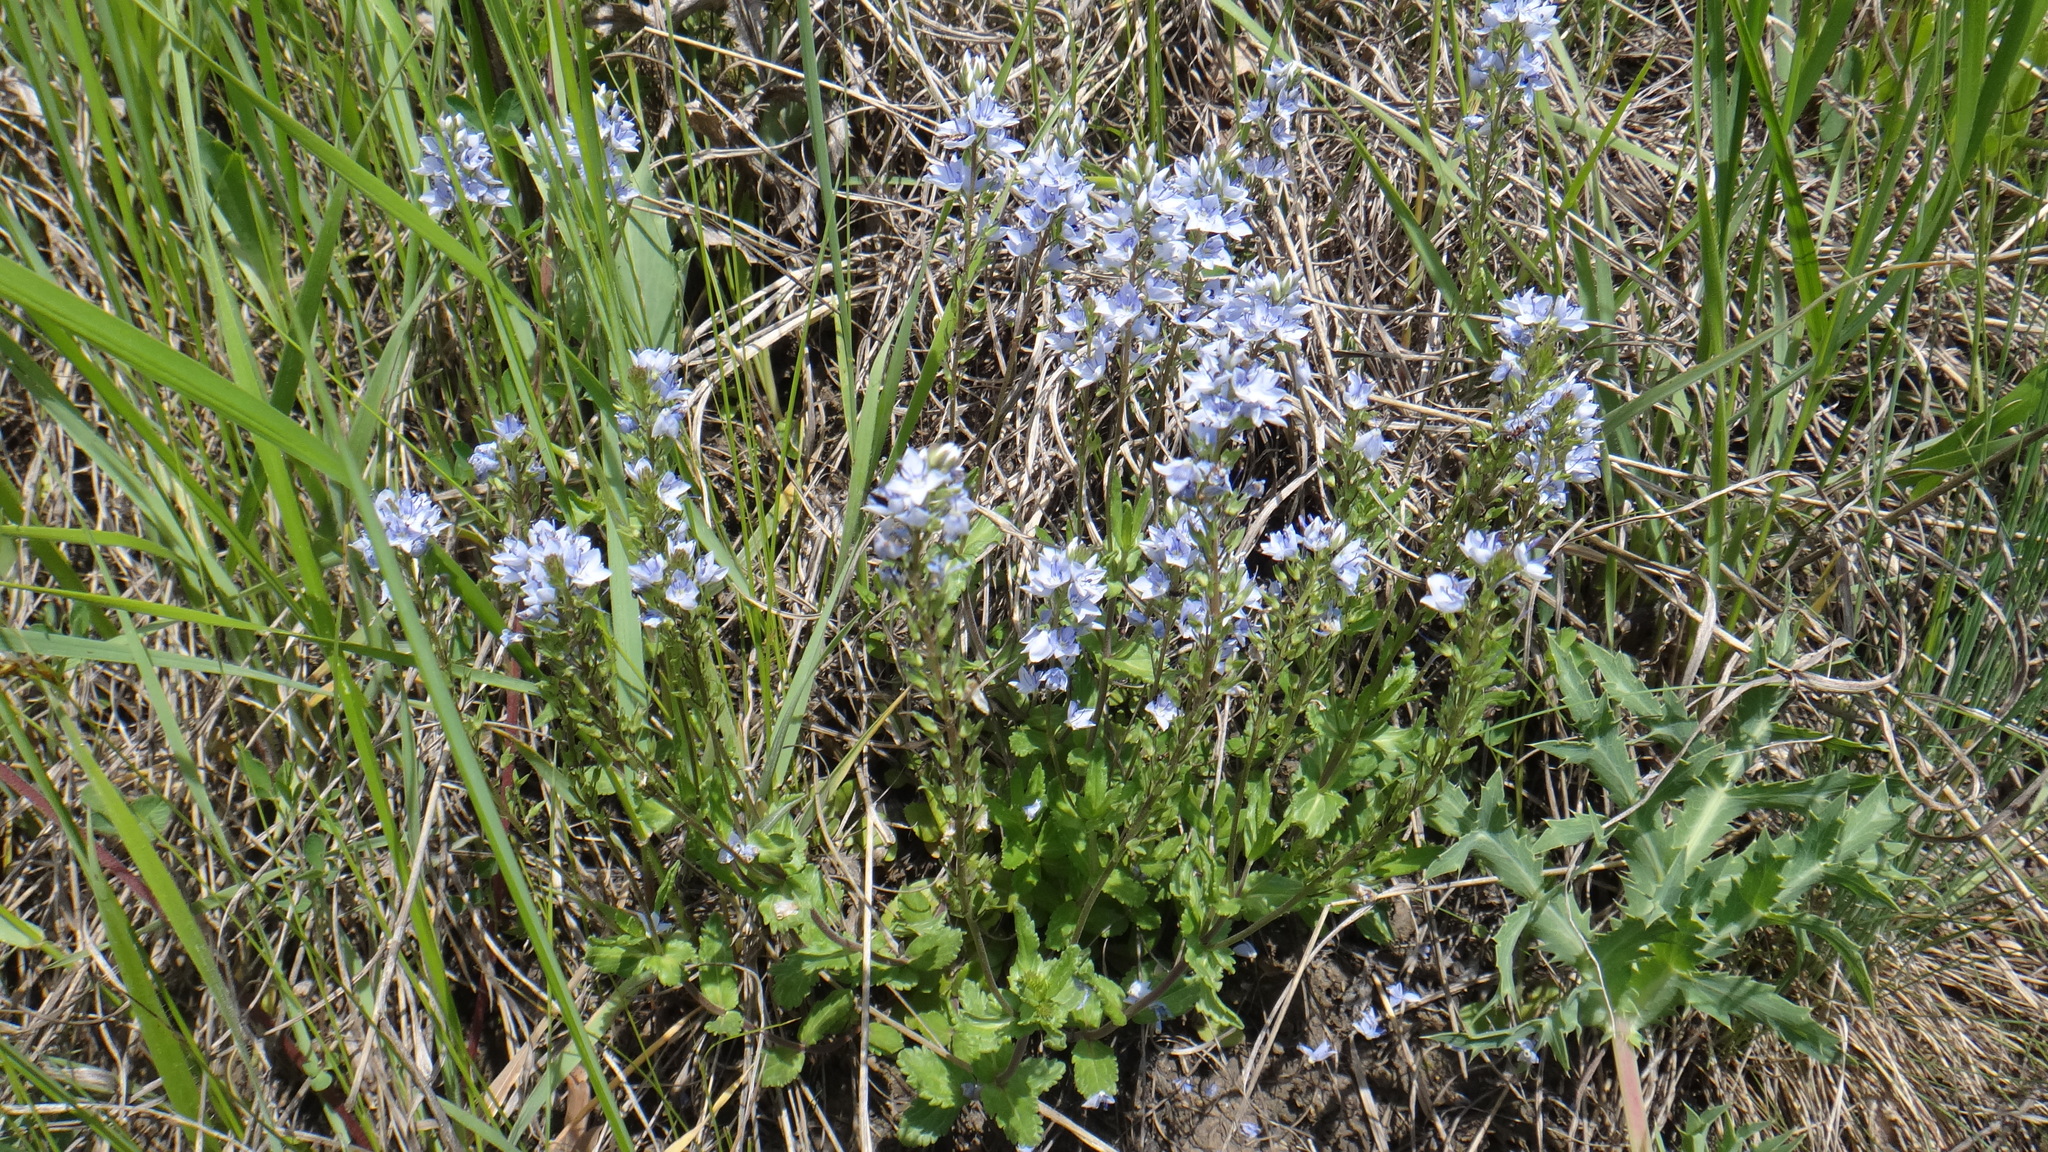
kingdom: Plantae
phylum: Tracheophyta
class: Magnoliopsida
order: Lamiales
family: Plantaginaceae
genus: Veronica
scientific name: Veronica prostrata
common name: Prostrate speedwell
